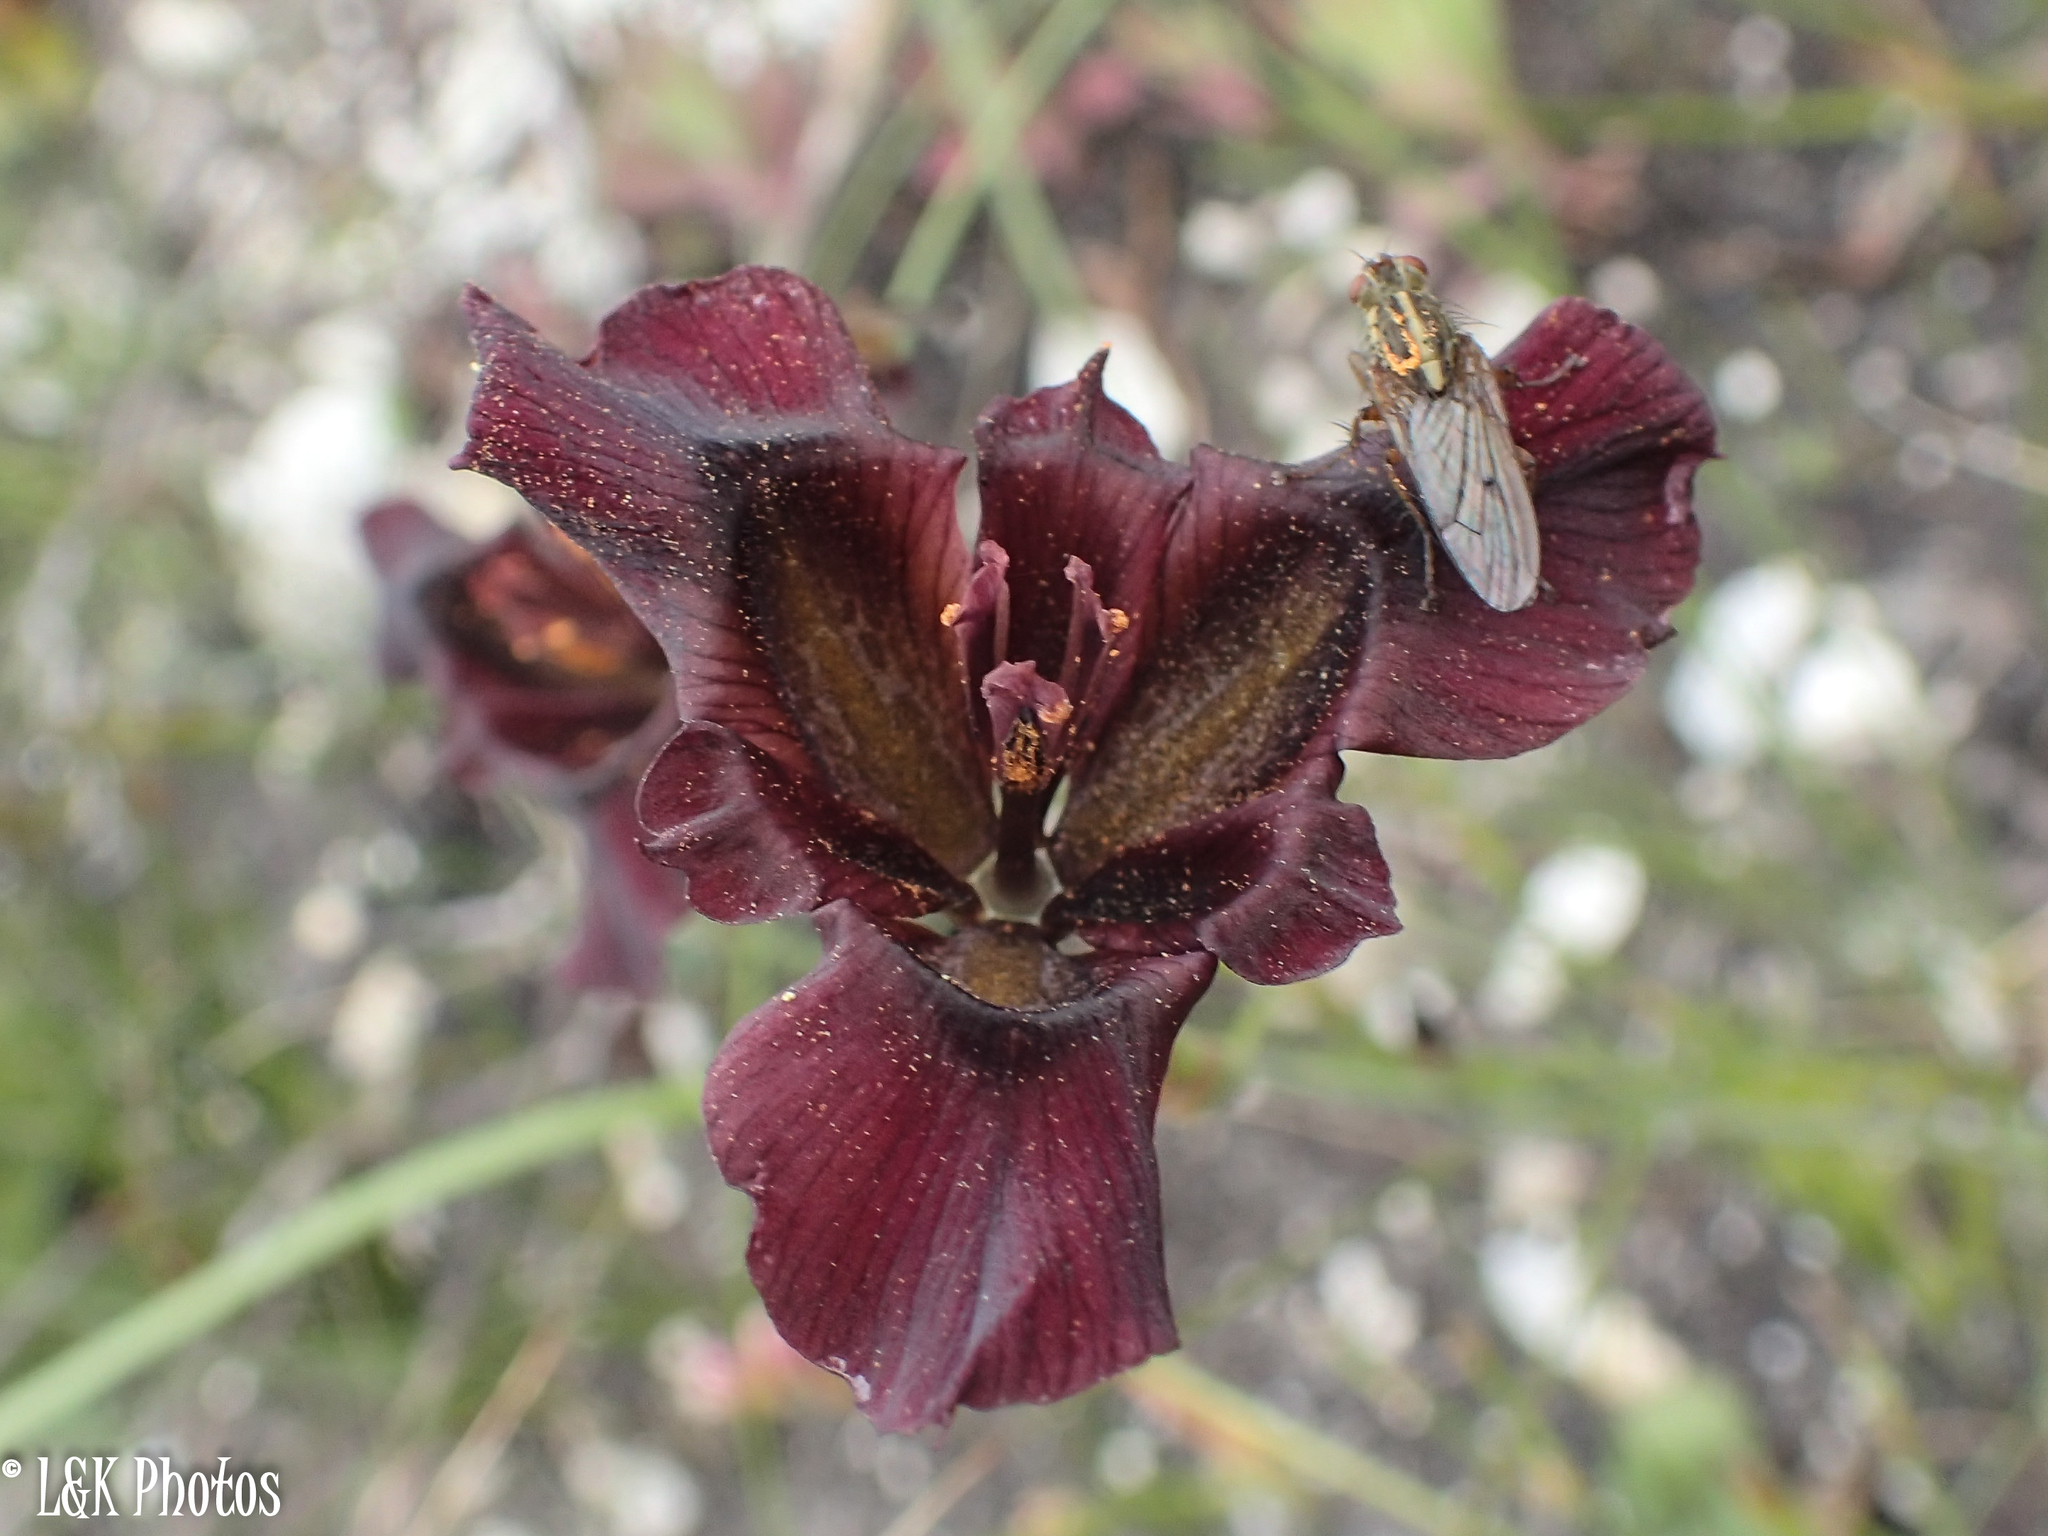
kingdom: Plantae
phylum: Tracheophyta
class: Liliopsida
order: Asparagales
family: Iridaceae
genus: Moraea
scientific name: Moraea lurida
